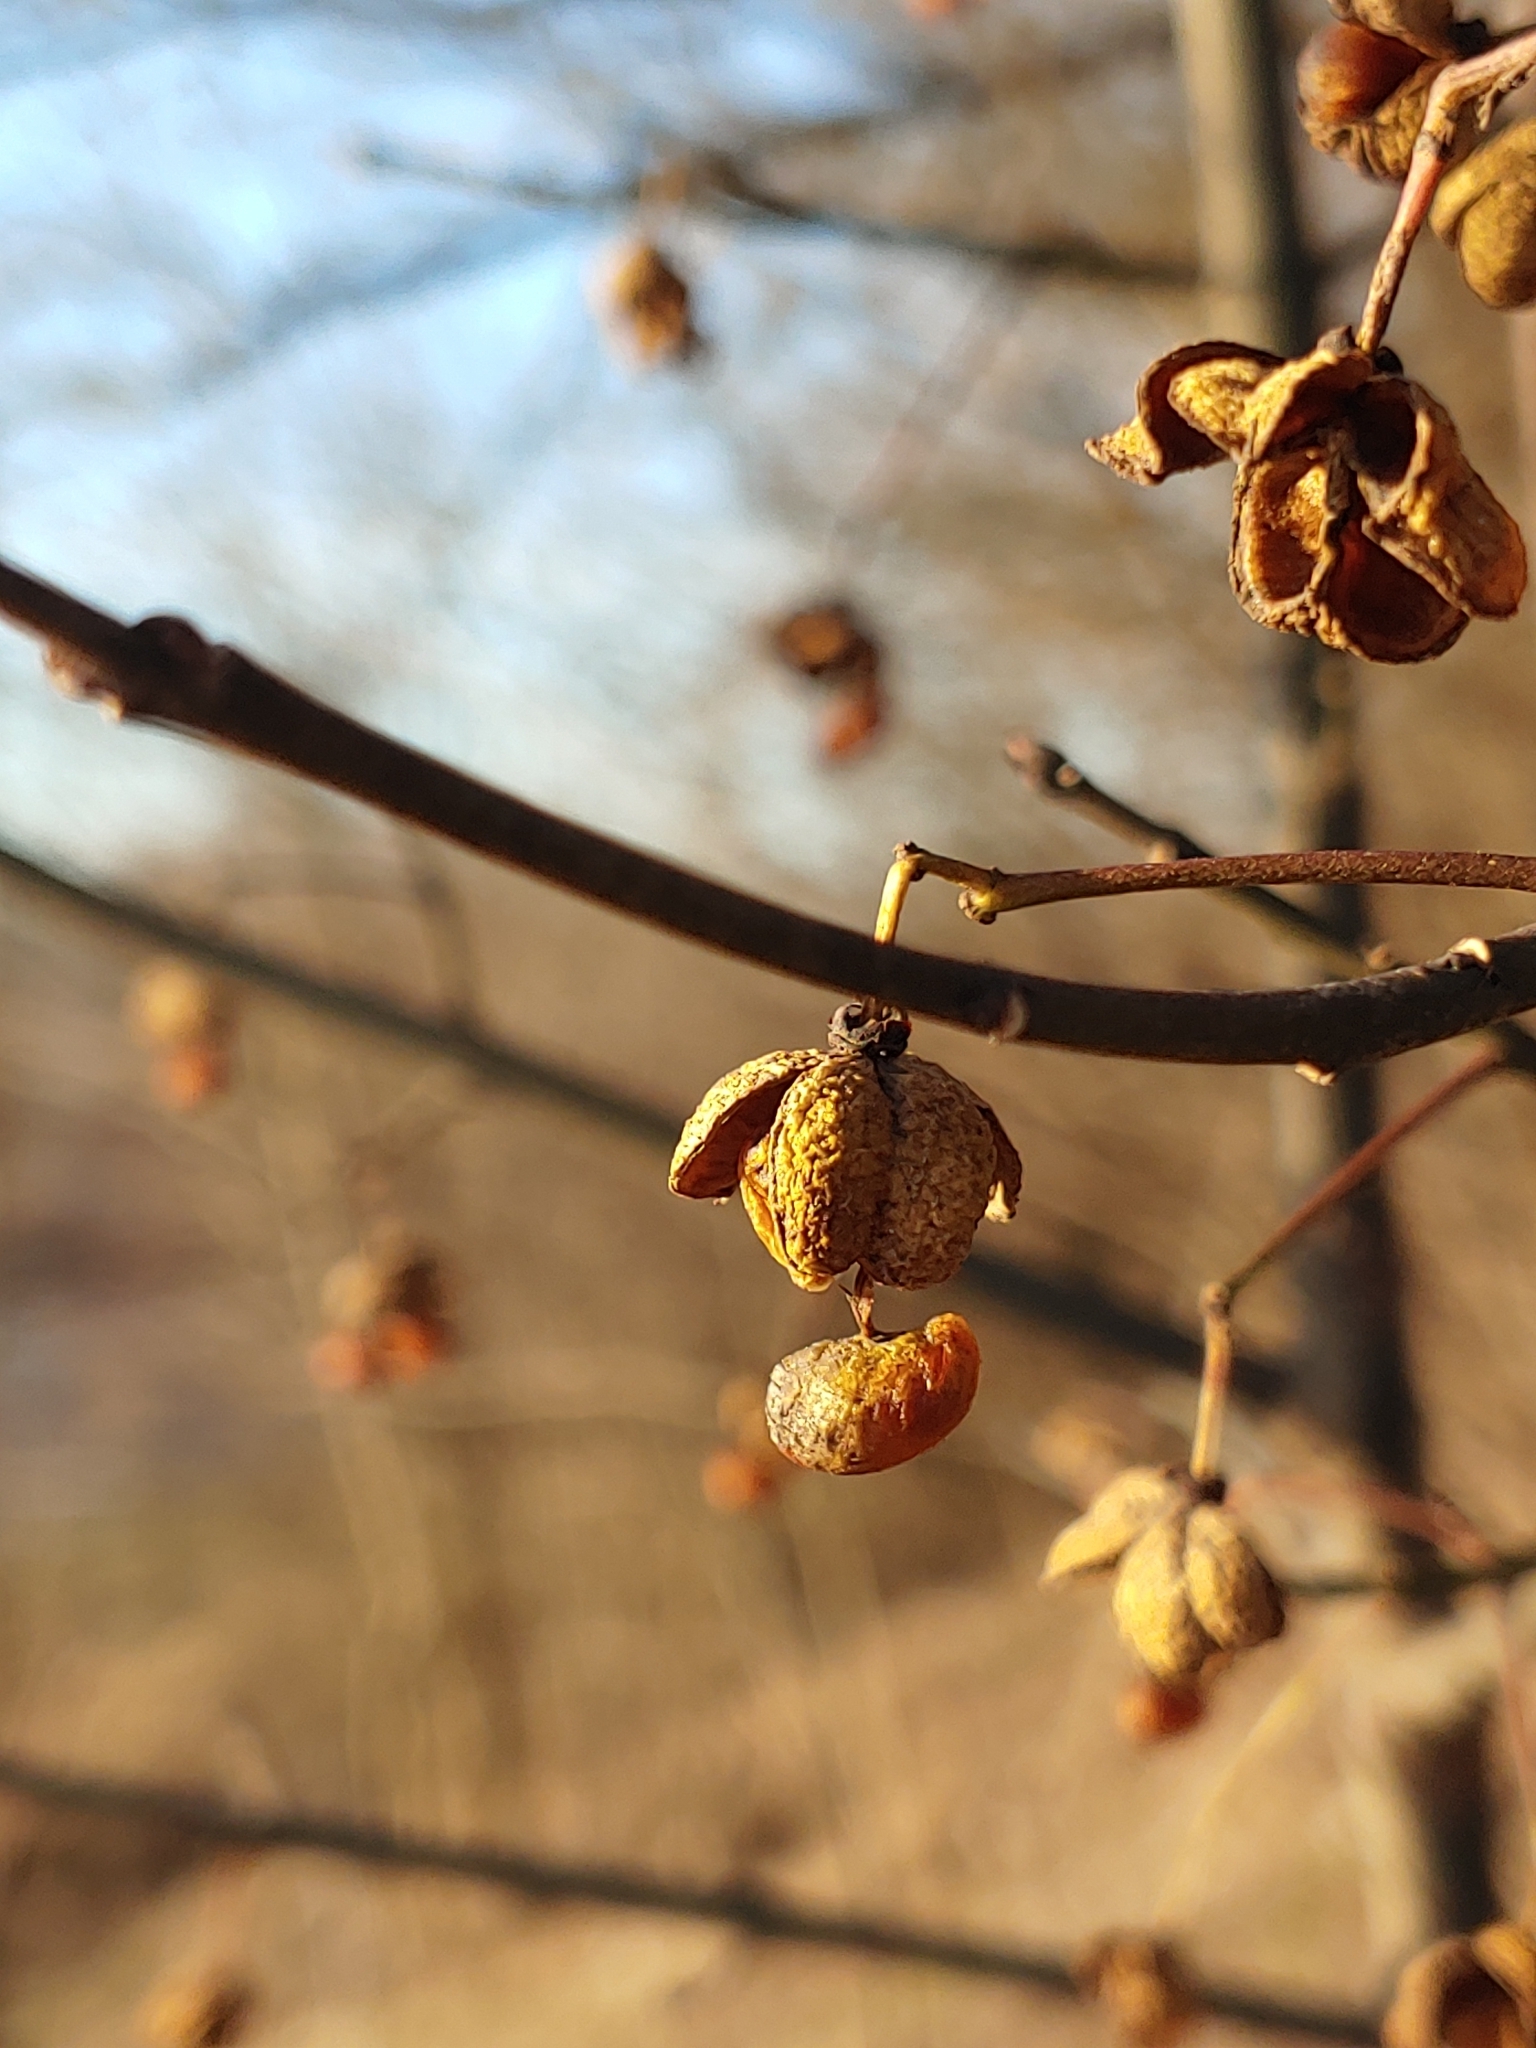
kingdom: Plantae
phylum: Tracheophyta
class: Magnoliopsida
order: Celastrales
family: Celastraceae
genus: Euonymus
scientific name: Euonymus europaeus
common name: Spindle
